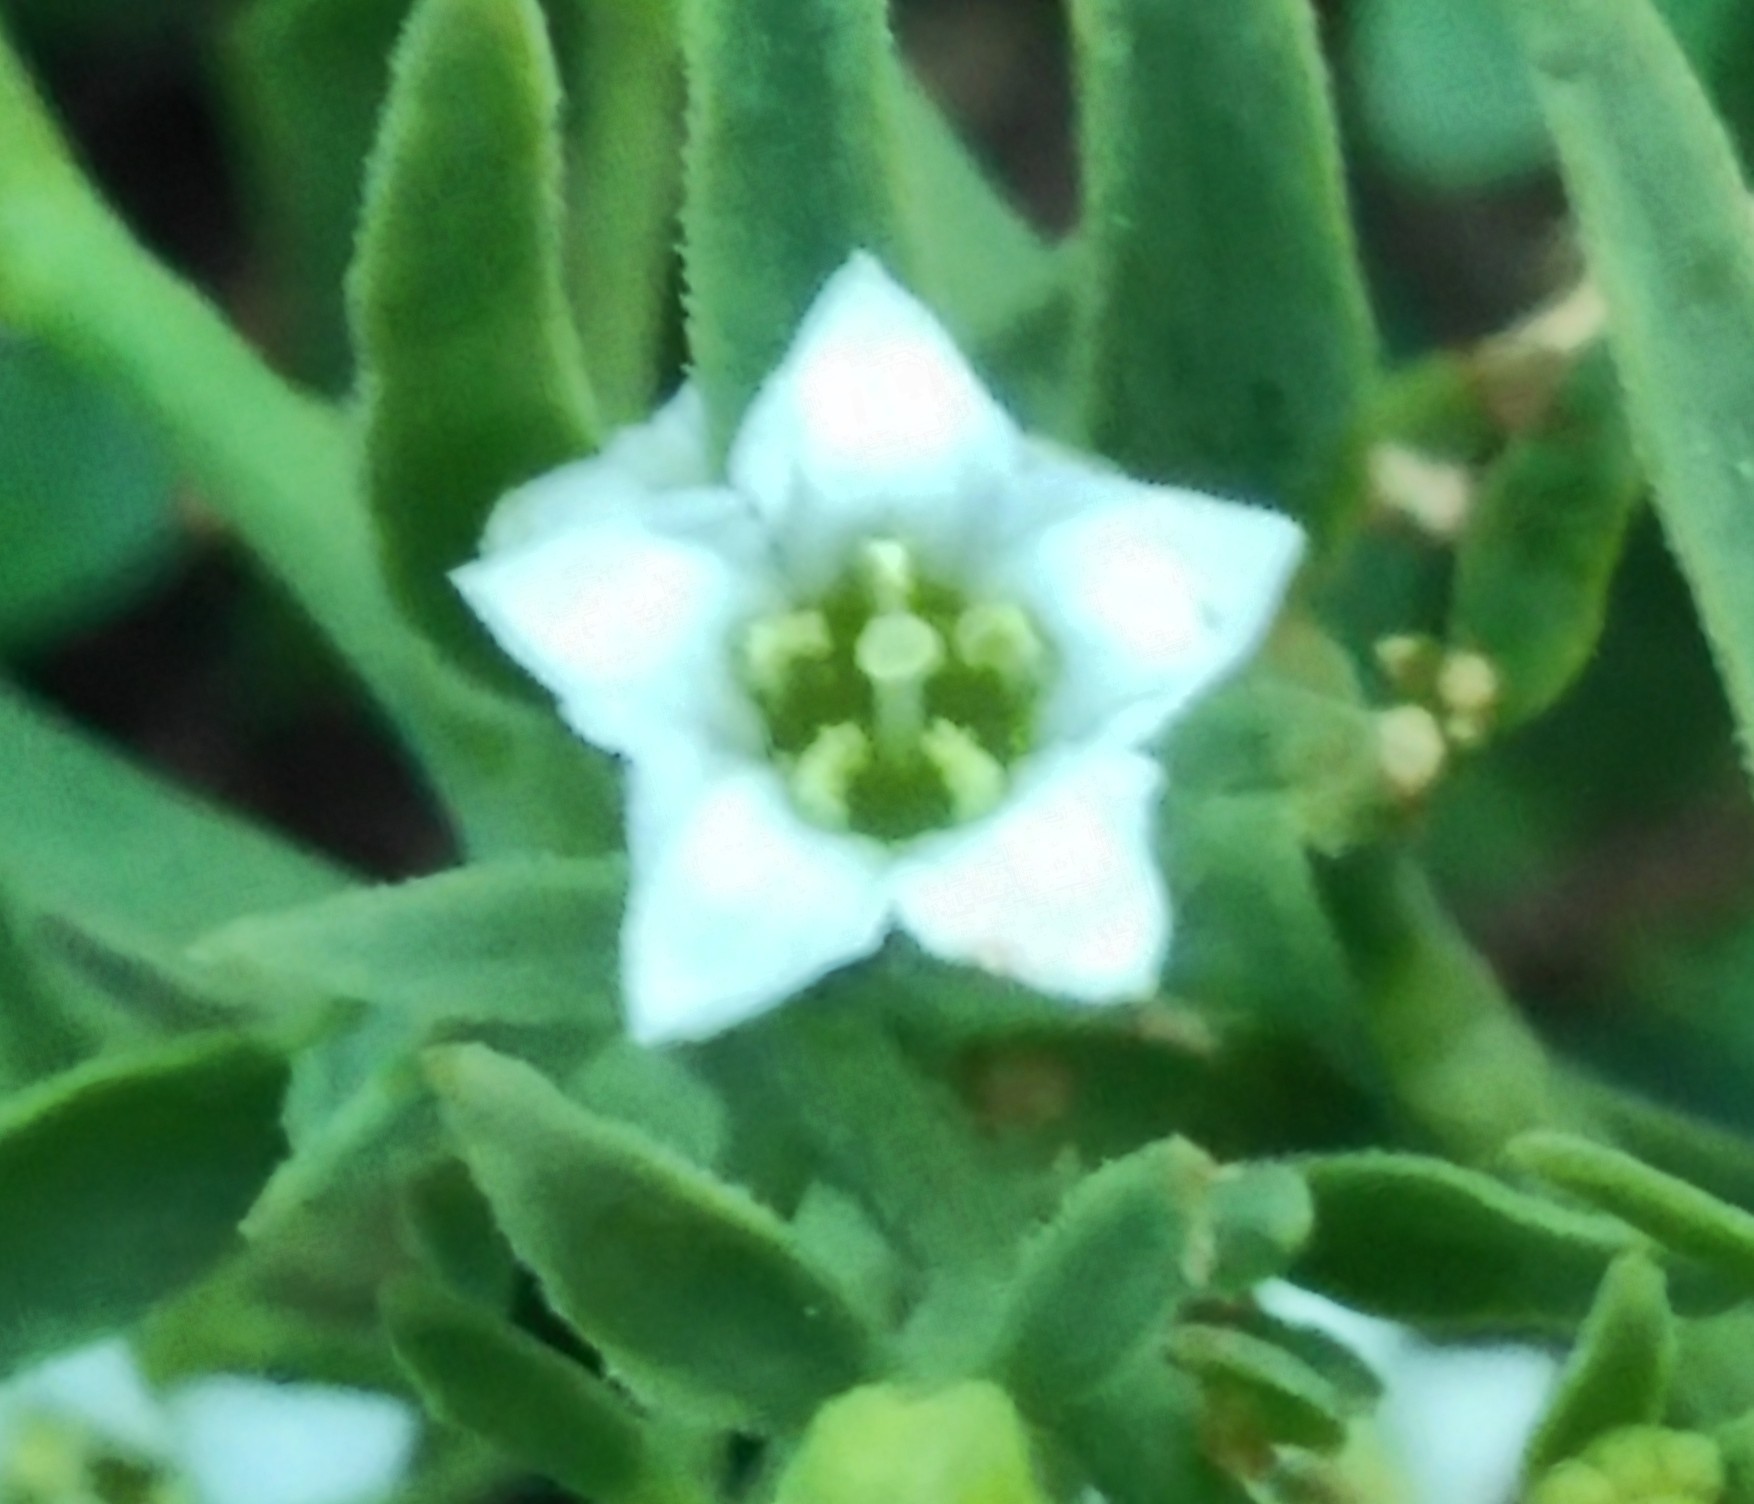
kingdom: Plantae
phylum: Tracheophyta
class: Magnoliopsida
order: Santalales
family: Thesiaceae
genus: Thesium
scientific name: Thesium pyrenaicum
